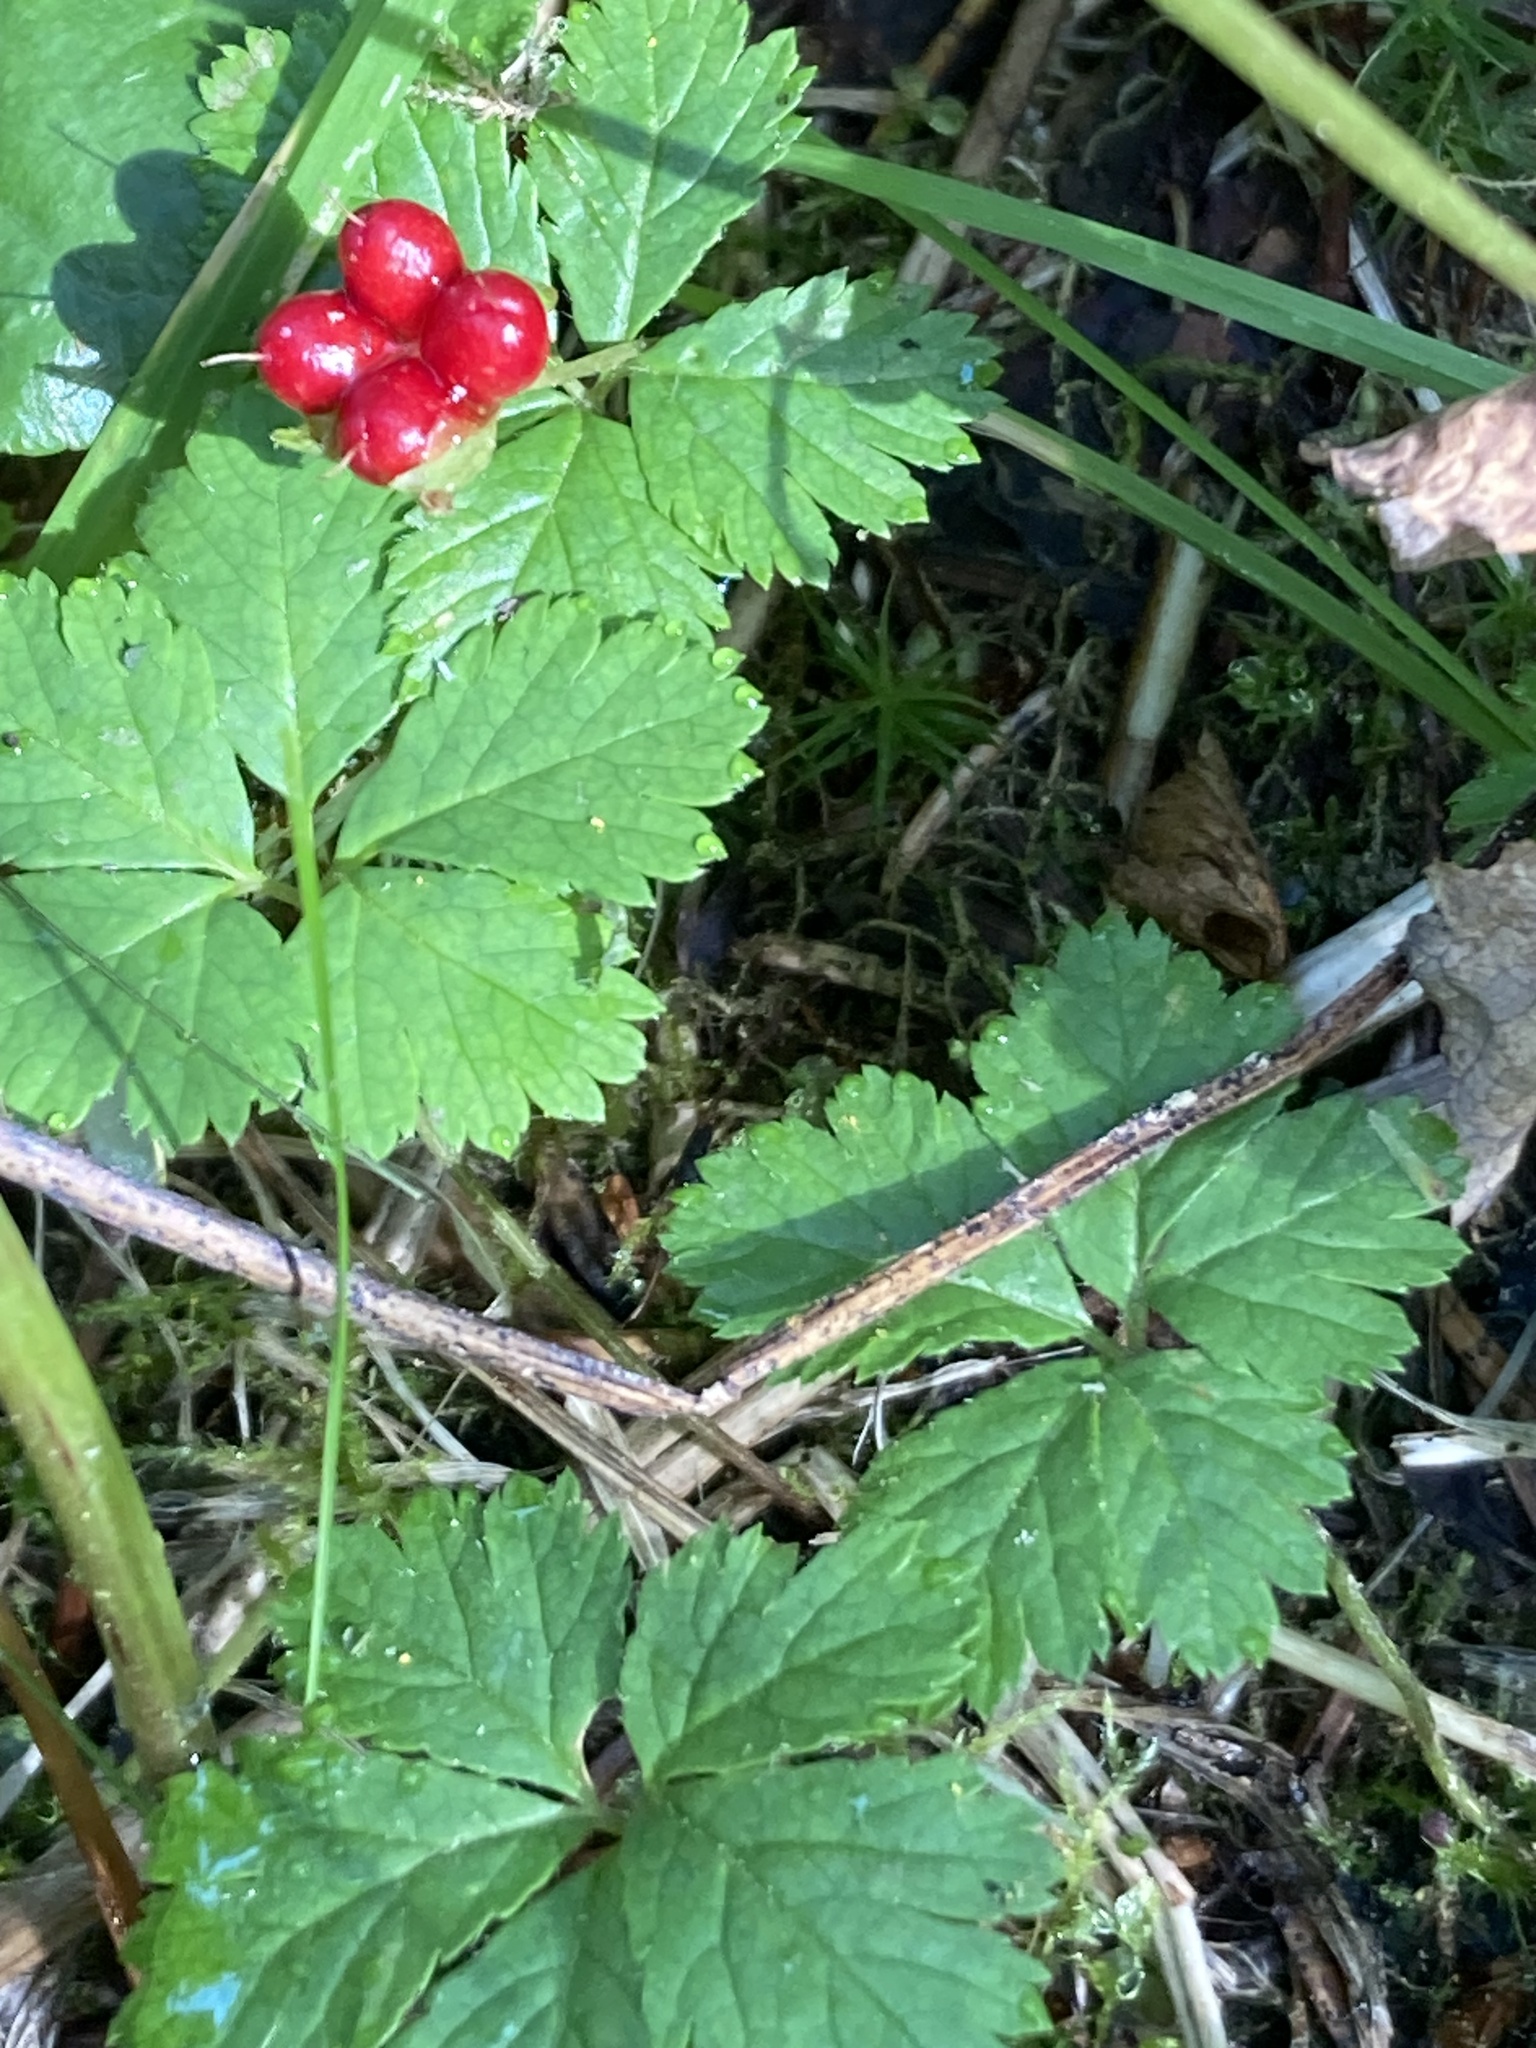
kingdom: Plantae
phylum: Tracheophyta
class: Magnoliopsida
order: Rosales
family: Rosaceae
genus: Rubus
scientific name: Rubus pedatus
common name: Creeping raspberry
